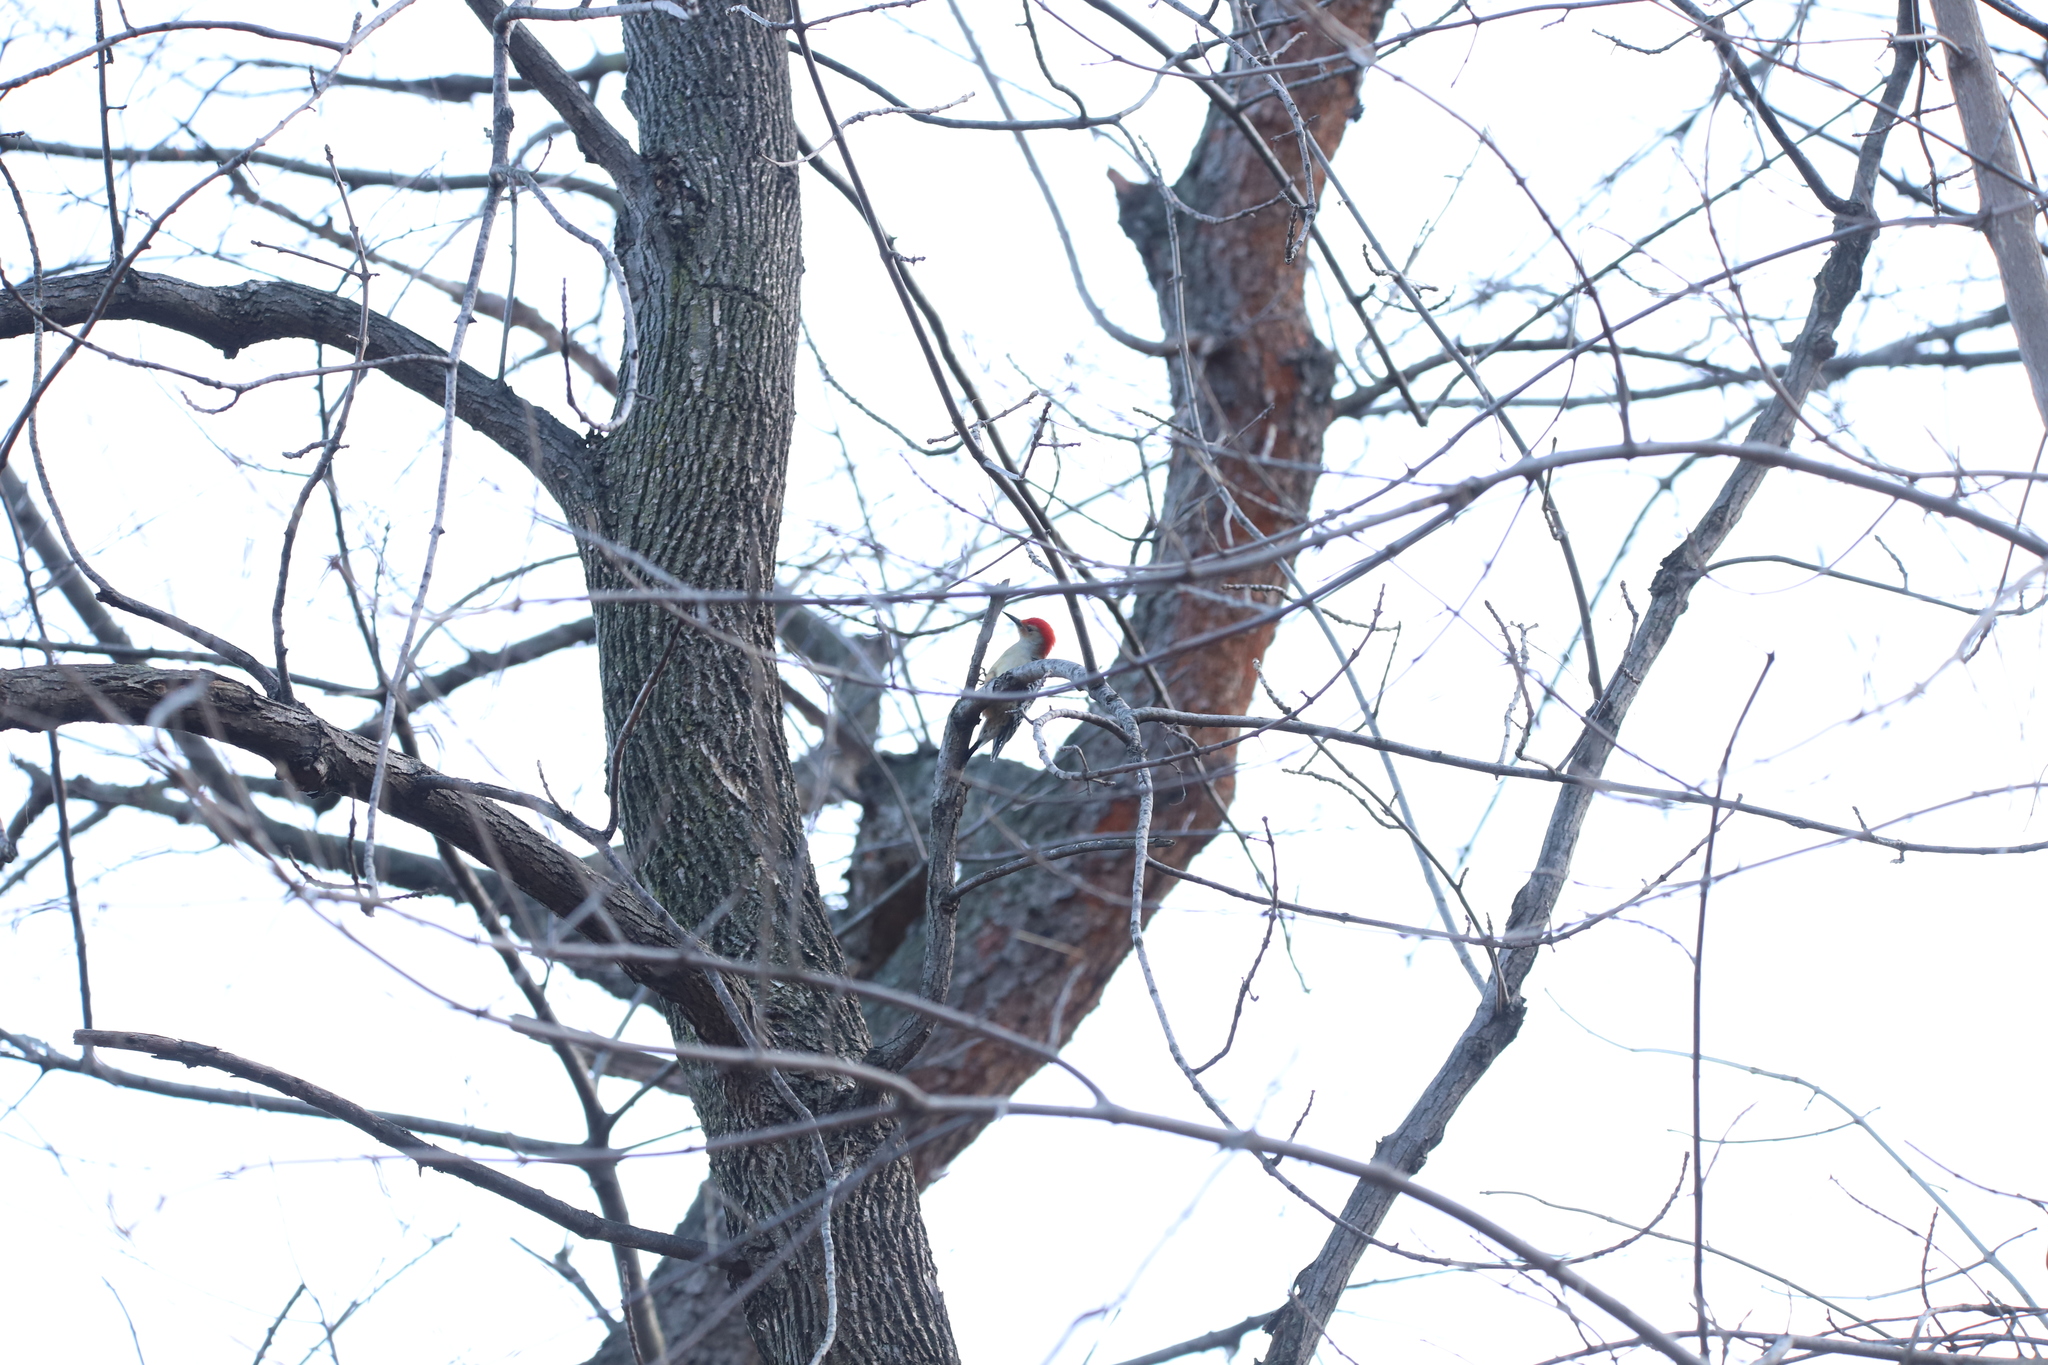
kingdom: Animalia
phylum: Chordata
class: Aves
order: Piciformes
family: Picidae
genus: Melanerpes
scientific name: Melanerpes carolinus
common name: Red-bellied woodpecker
